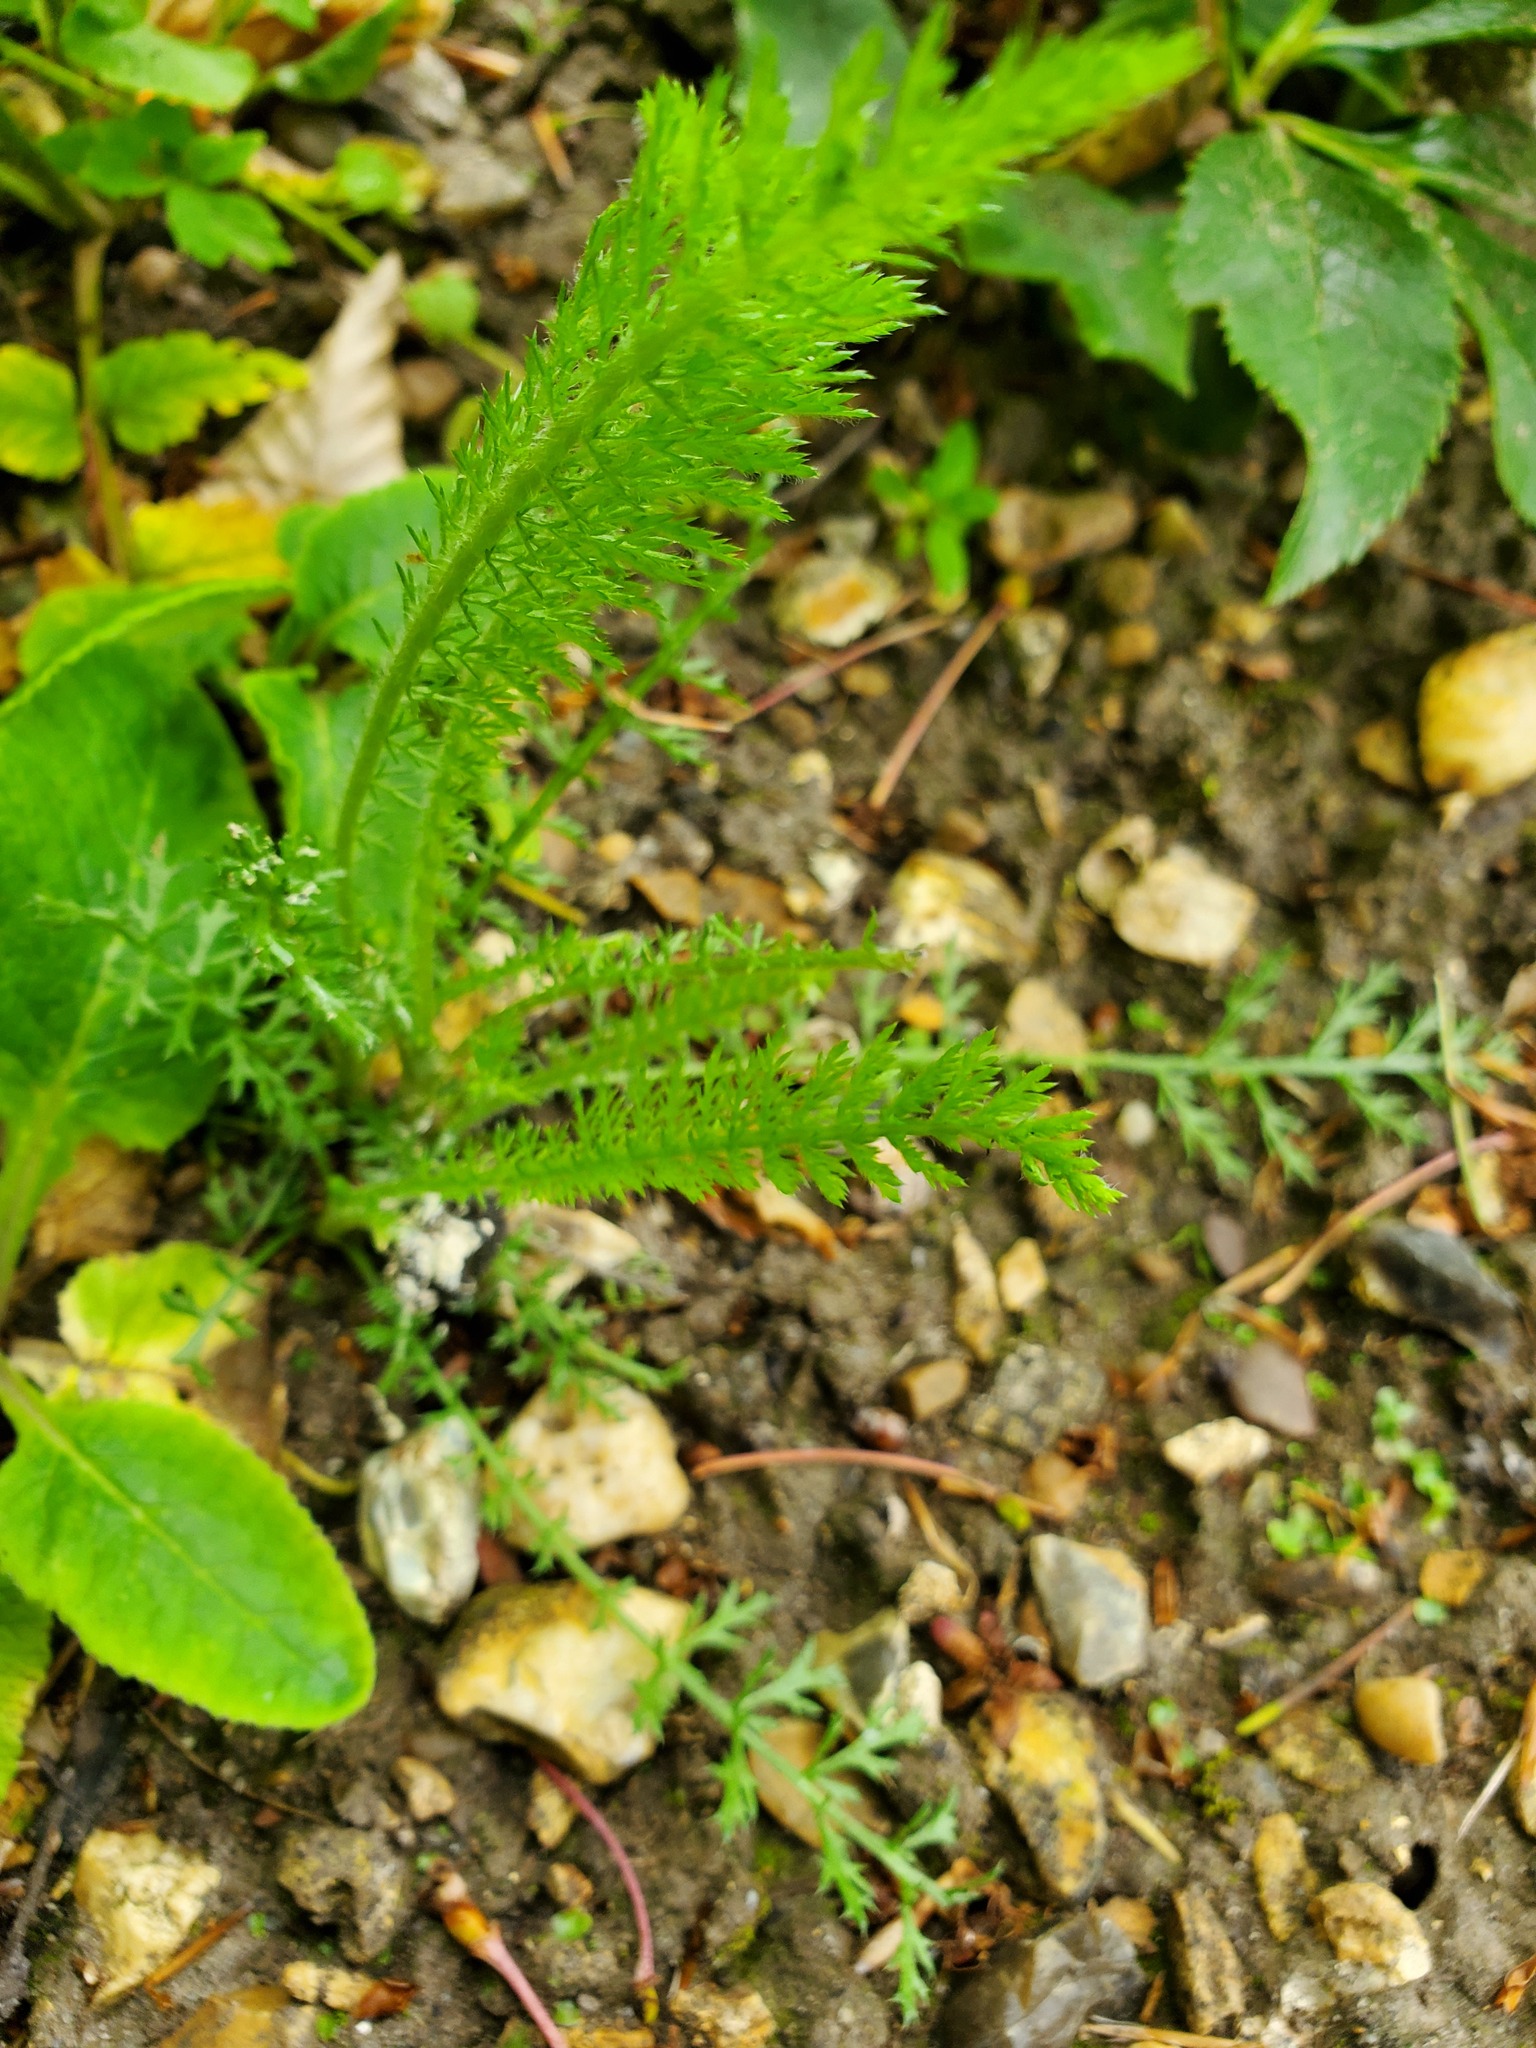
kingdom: Plantae
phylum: Tracheophyta
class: Magnoliopsida
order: Asterales
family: Asteraceae
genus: Achillea
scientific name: Achillea millefolium
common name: Yarrow
